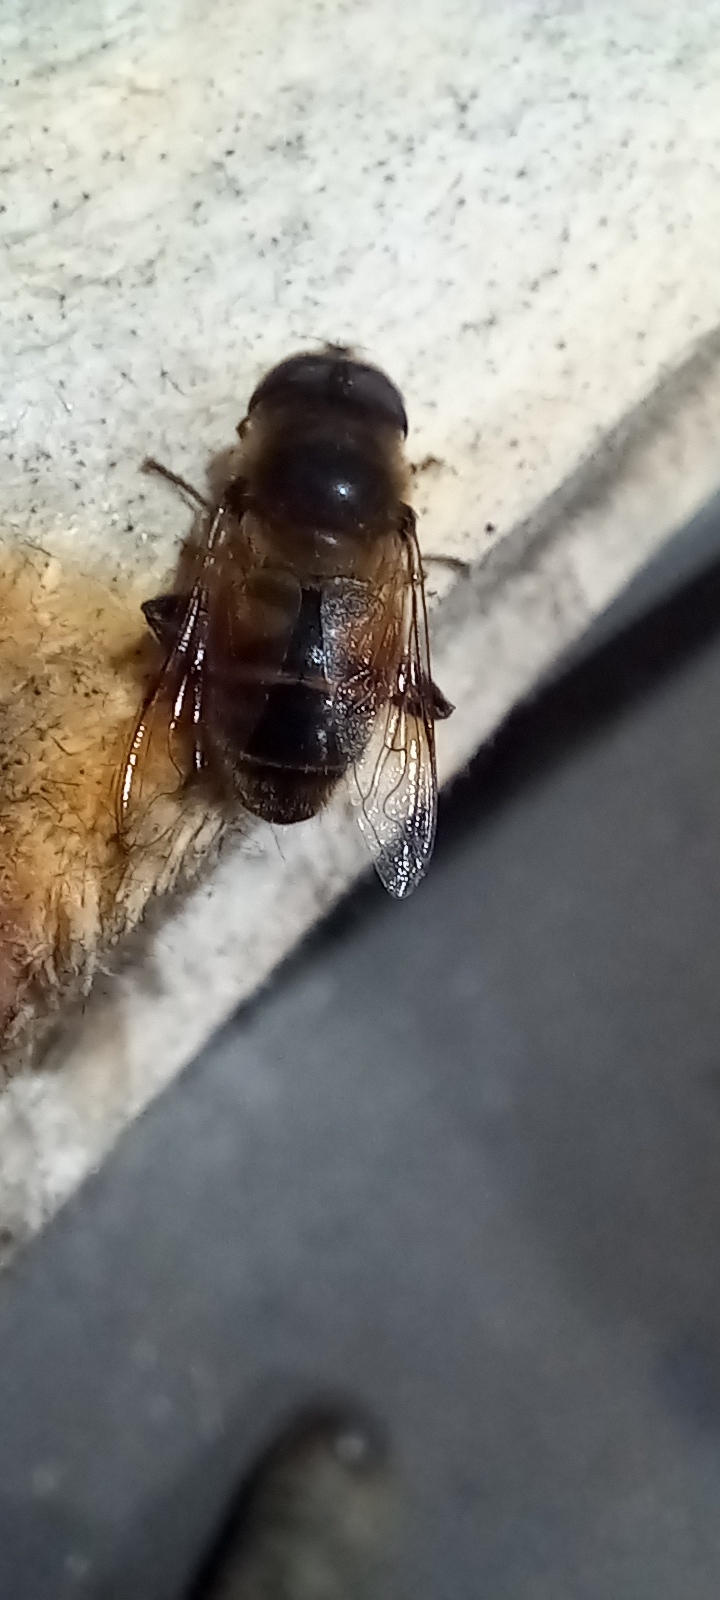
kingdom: Animalia
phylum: Arthropoda
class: Insecta
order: Diptera
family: Syrphidae
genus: Eristalis
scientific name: Eristalis tenax
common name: Drone fly
